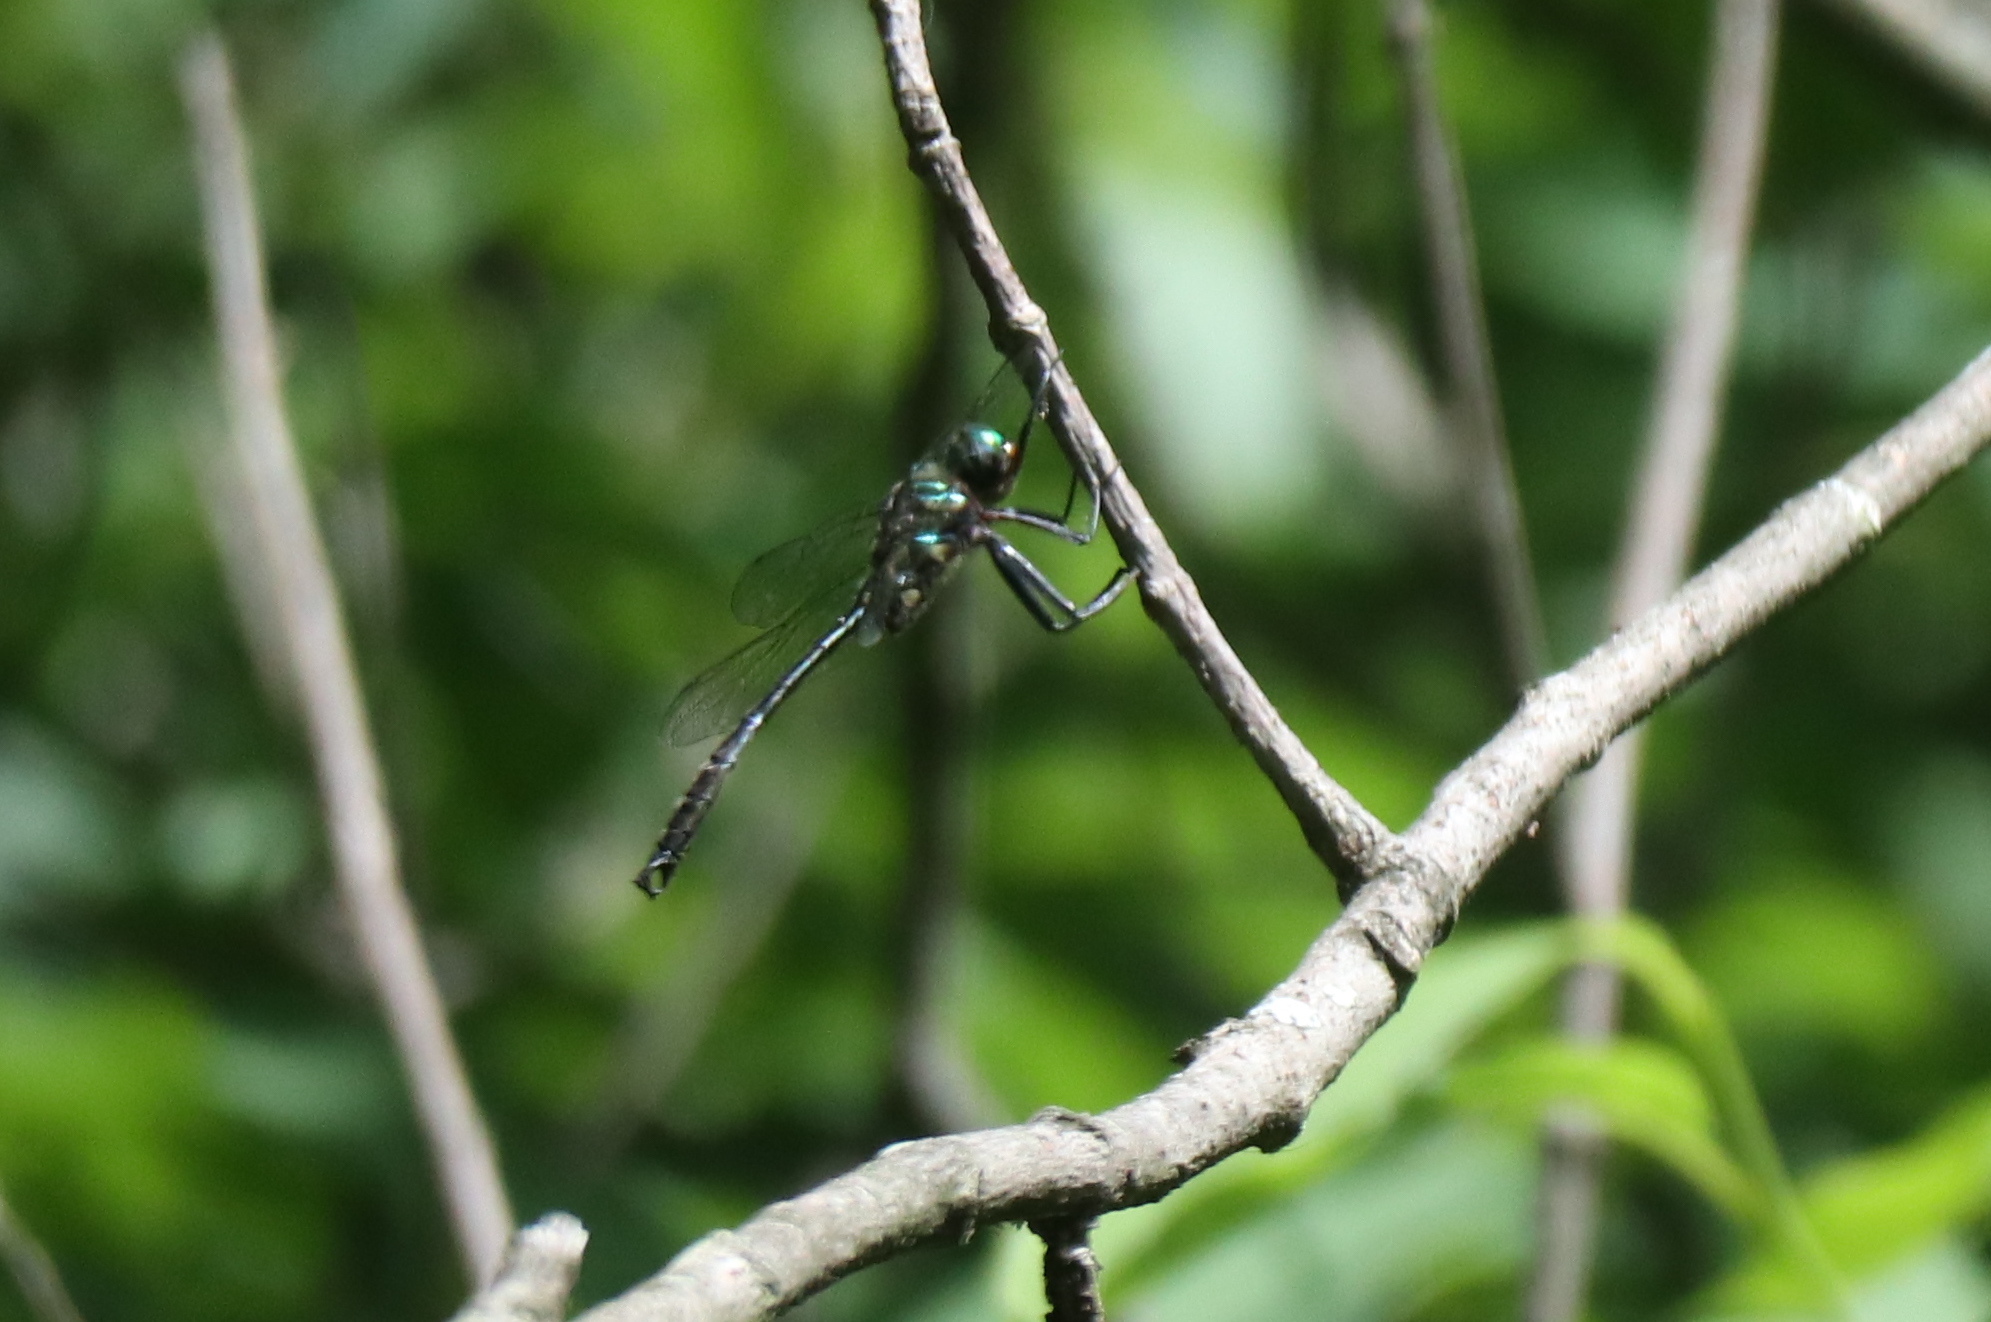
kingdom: Animalia
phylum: Arthropoda
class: Insecta
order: Odonata
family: Corduliidae
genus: Somatochlora
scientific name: Somatochlora tenebrosa
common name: Clamp-tipped emerald
